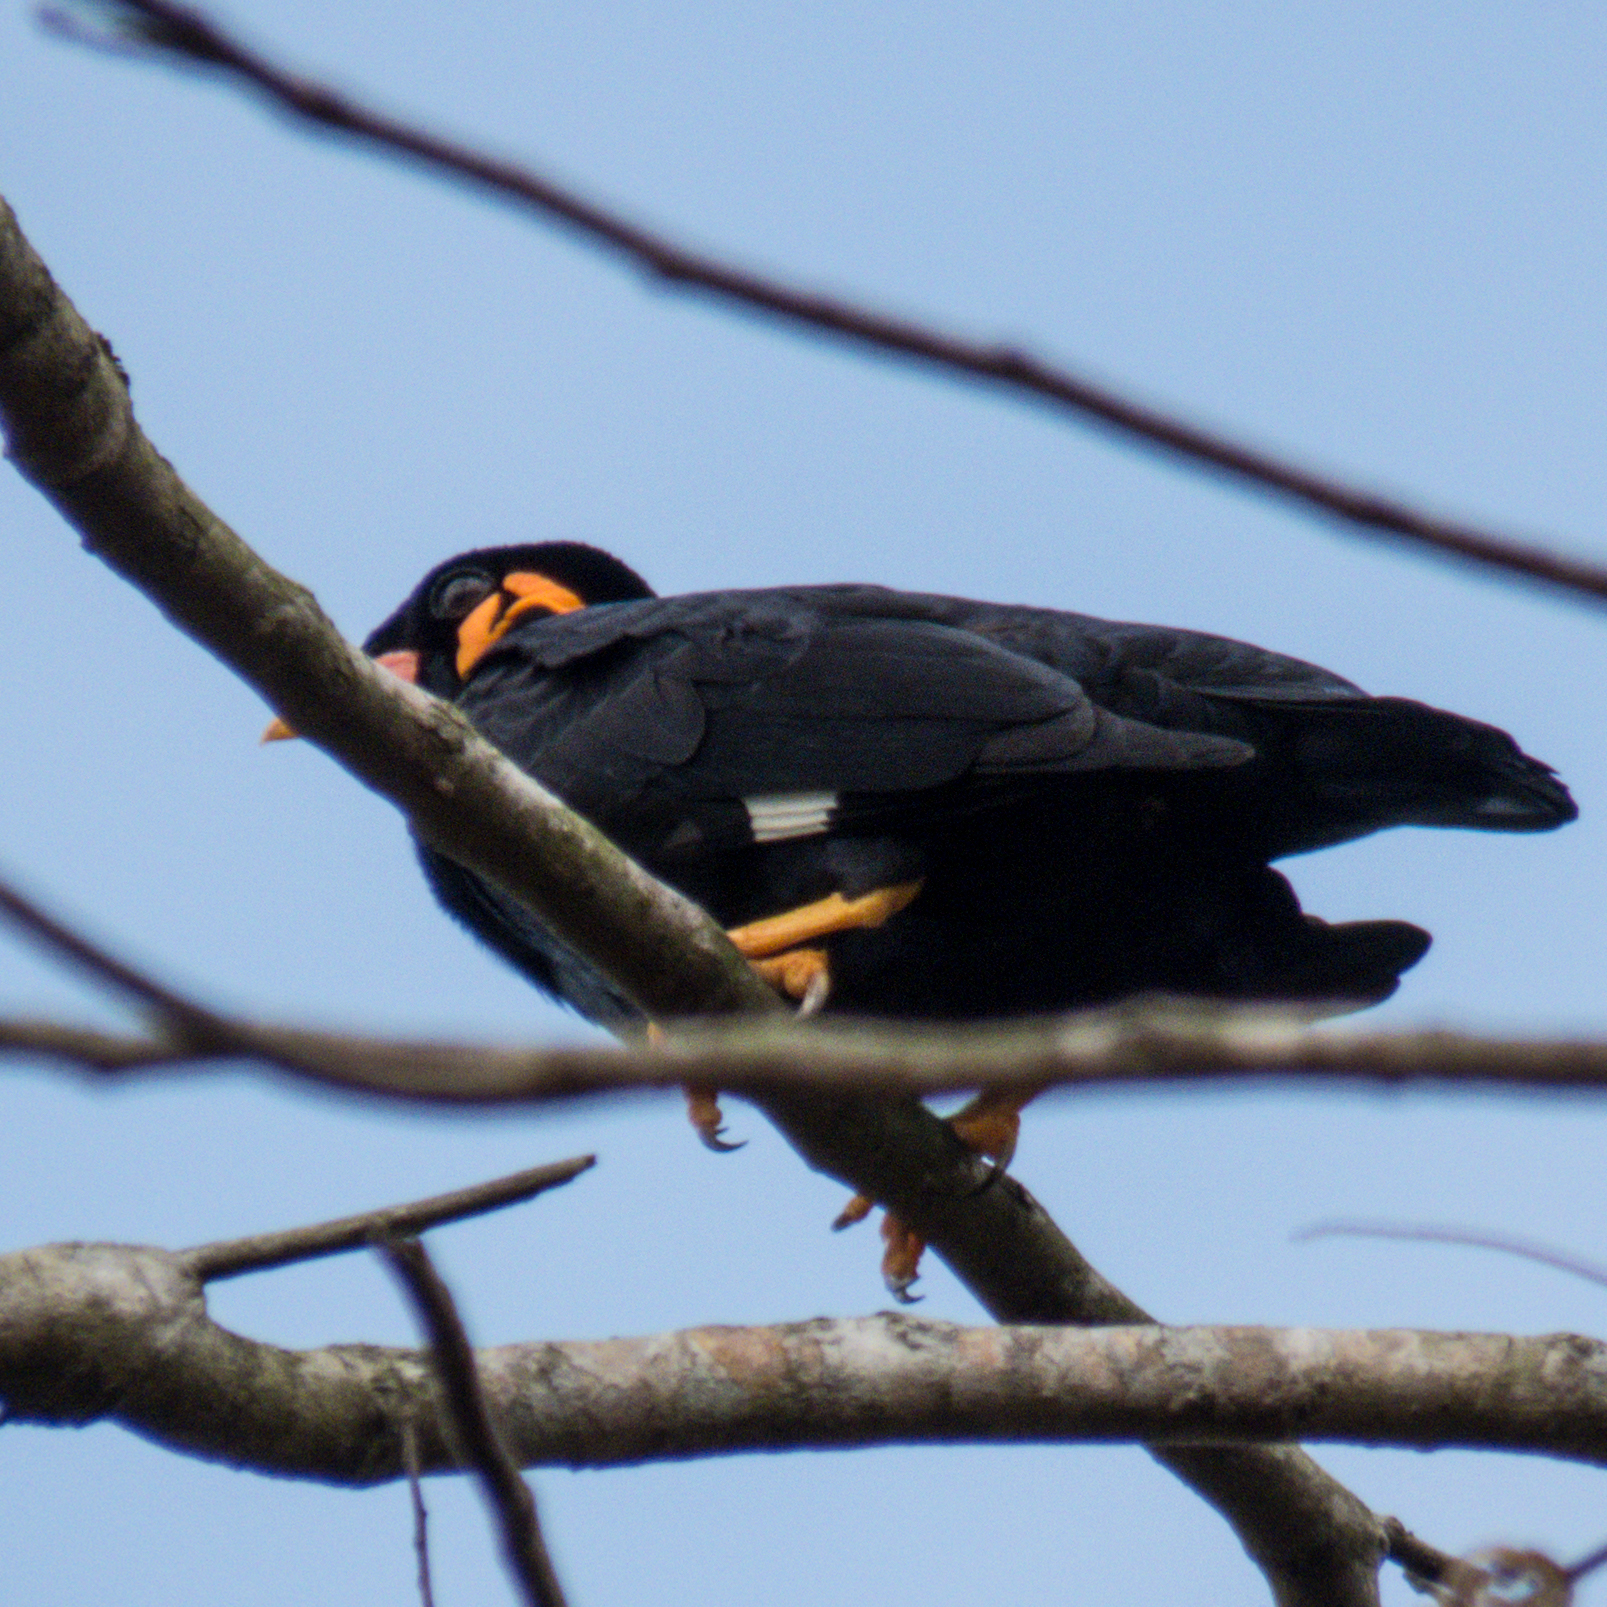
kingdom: Animalia
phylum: Chordata
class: Aves
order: Passeriformes
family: Sturnidae
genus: Gracula
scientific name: Gracula religiosa
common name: Common hill myna
